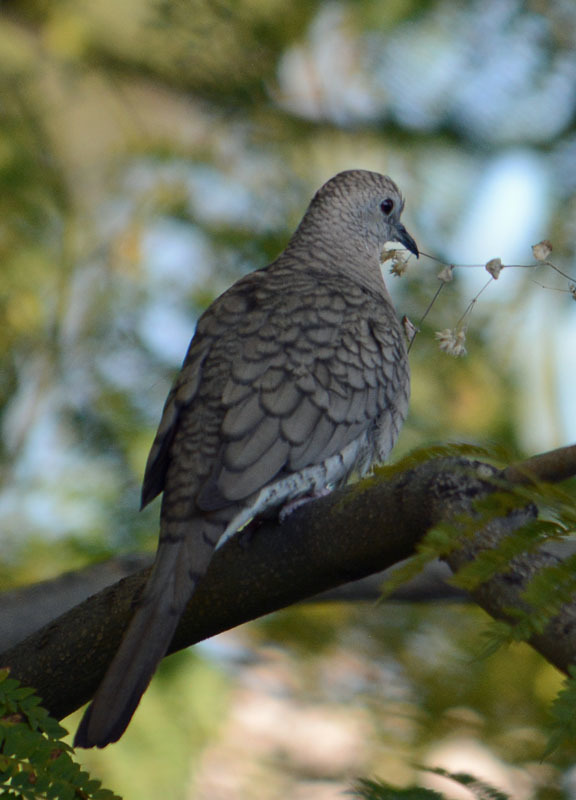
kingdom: Animalia
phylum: Chordata
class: Aves
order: Columbiformes
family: Columbidae
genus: Columbina
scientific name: Columbina inca
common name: Inca dove
